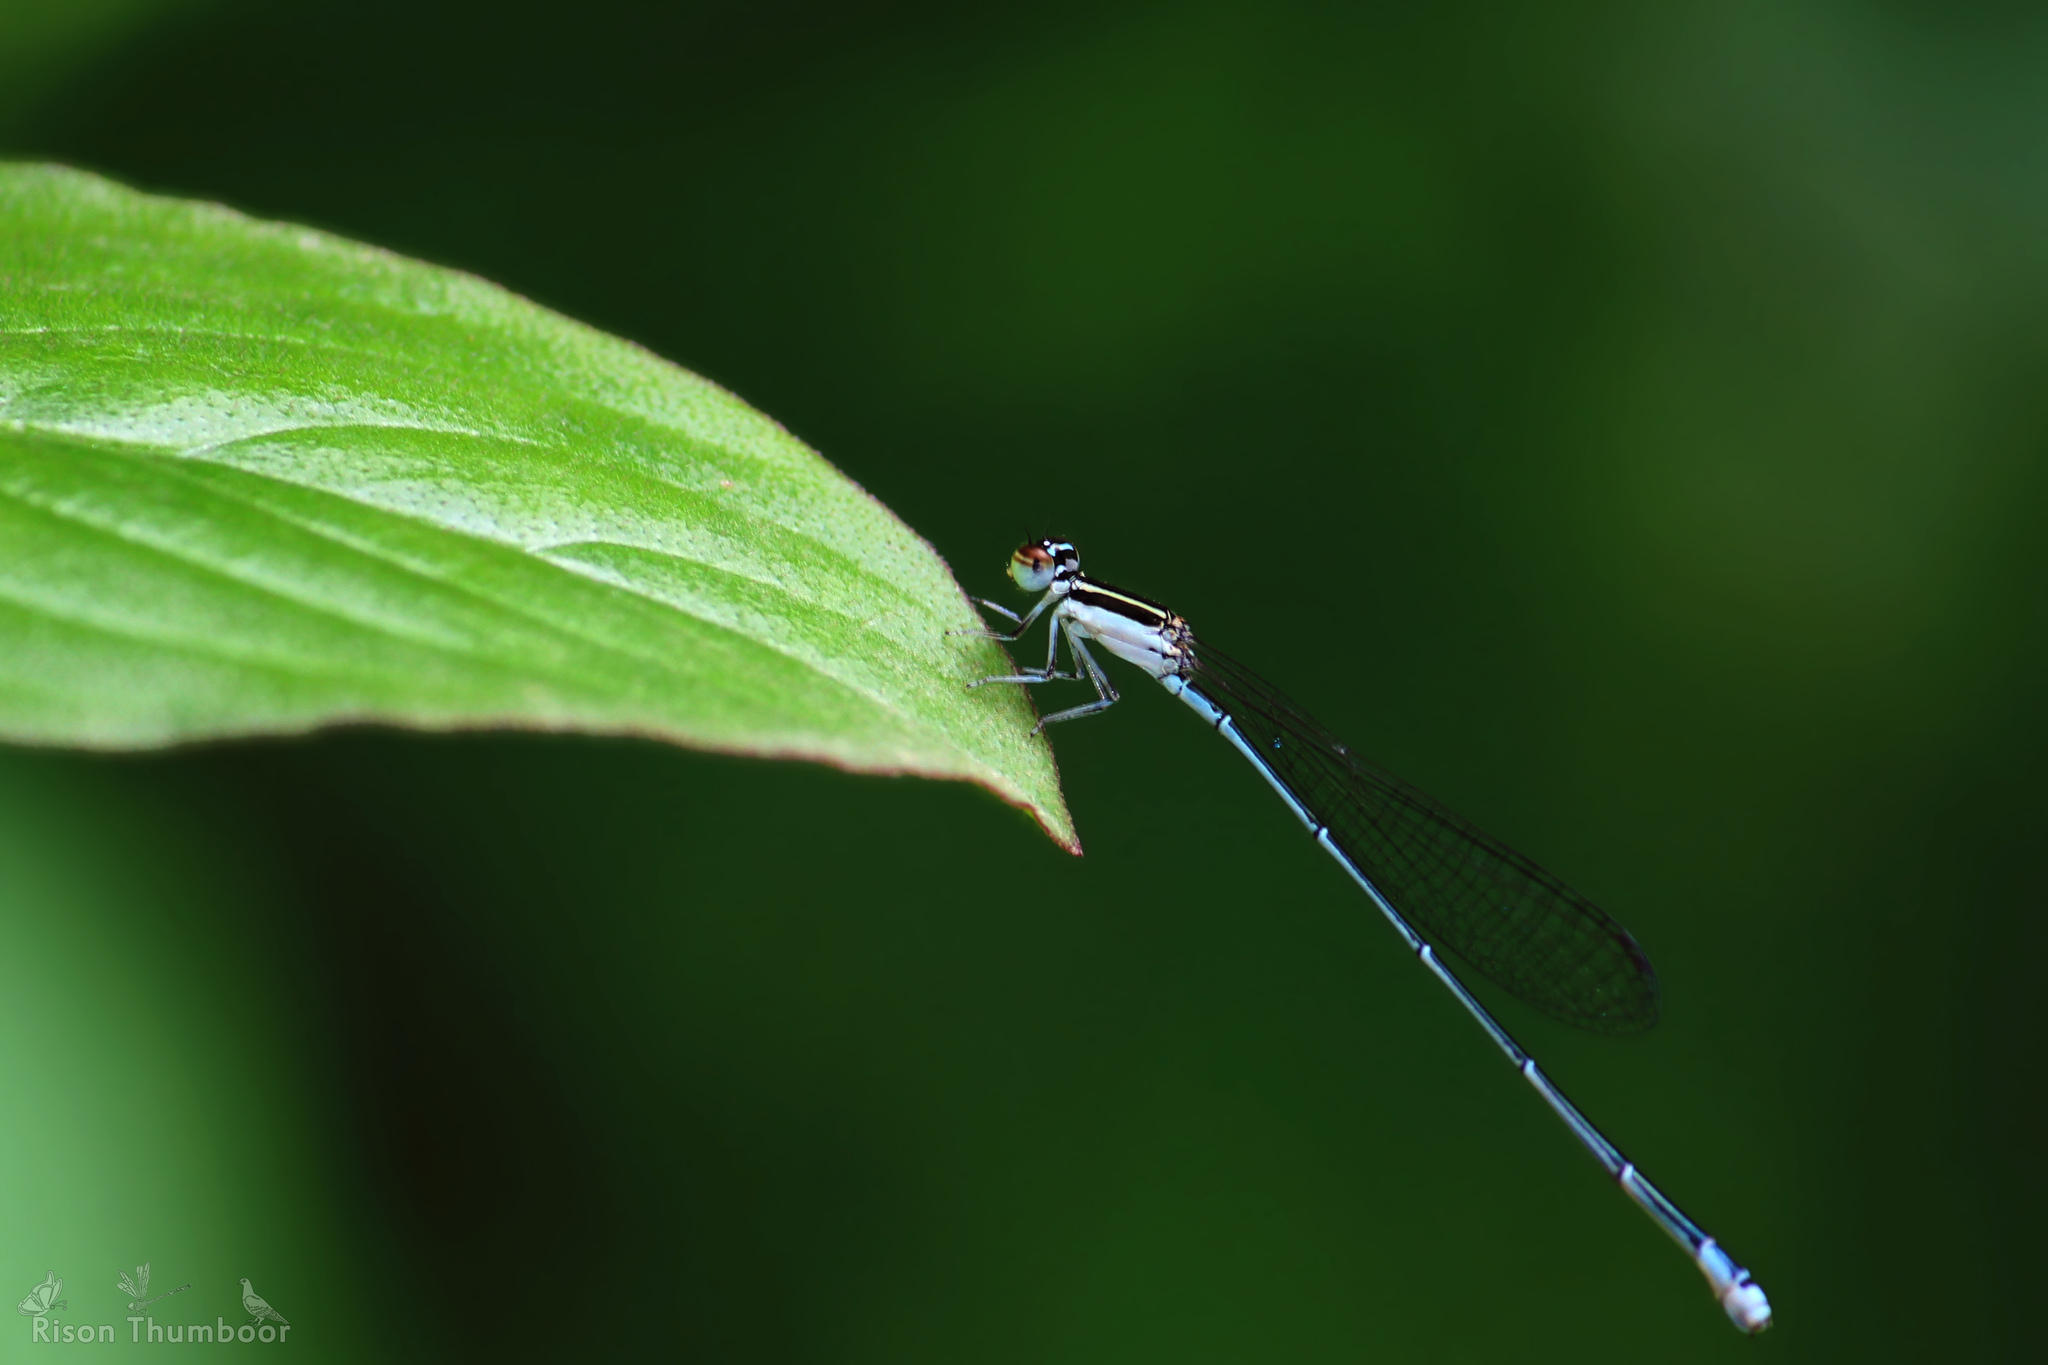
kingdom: Animalia
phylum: Arthropoda
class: Insecta
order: Odonata
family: Coenagrionidae
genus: Aciagrion
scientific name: Aciagrion occidentale
